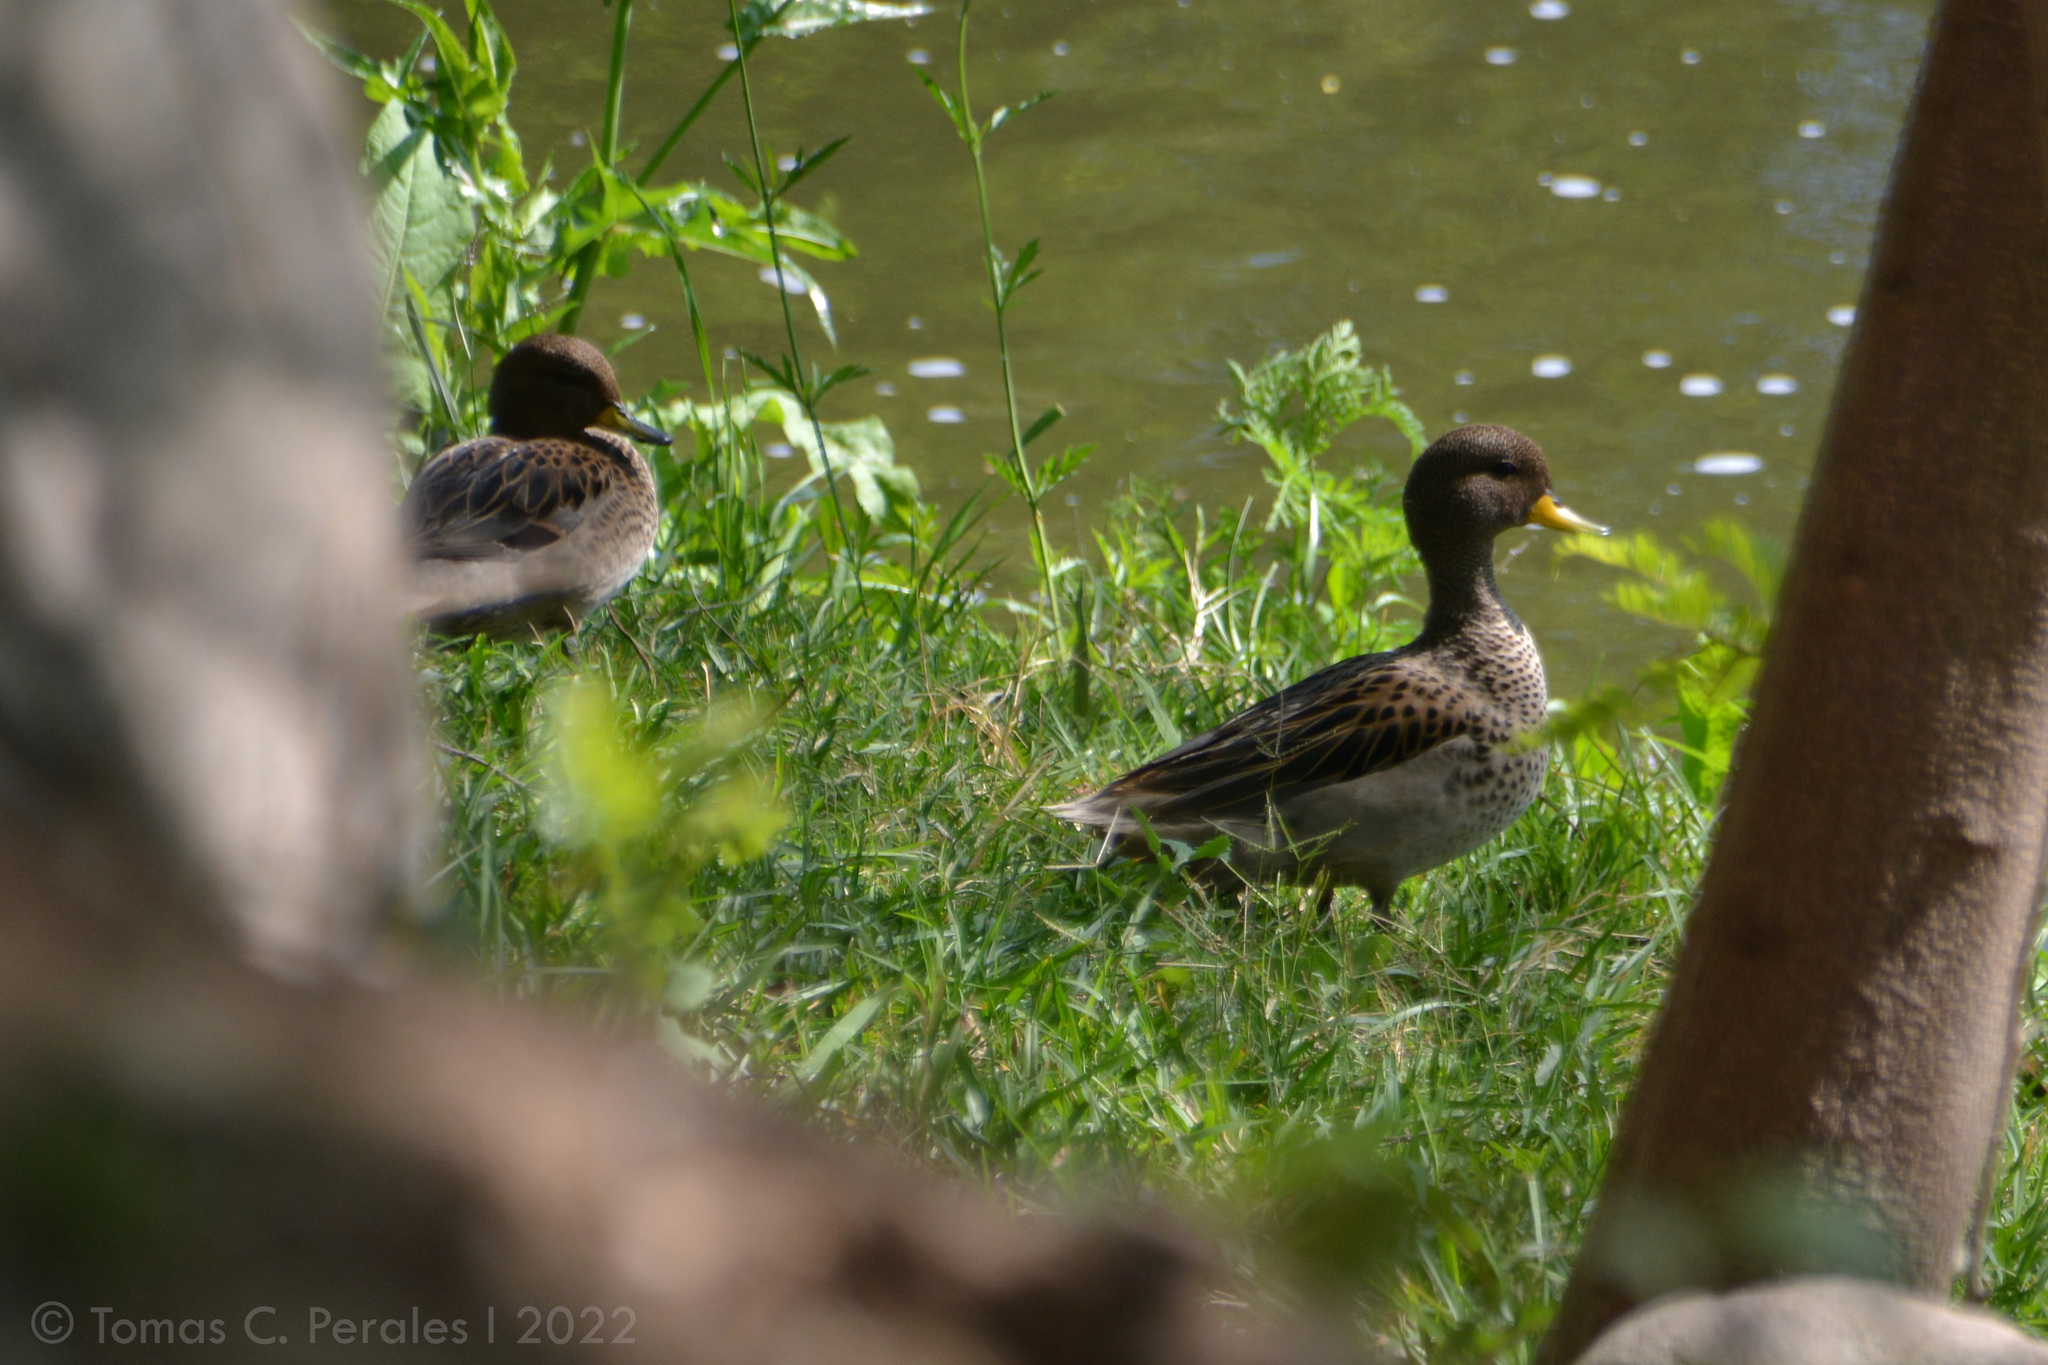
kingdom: Animalia
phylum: Chordata
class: Aves
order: Anseriformes
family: Anatidae
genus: Anas
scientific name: Anas flavirostris
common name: Yellow-billed teal
